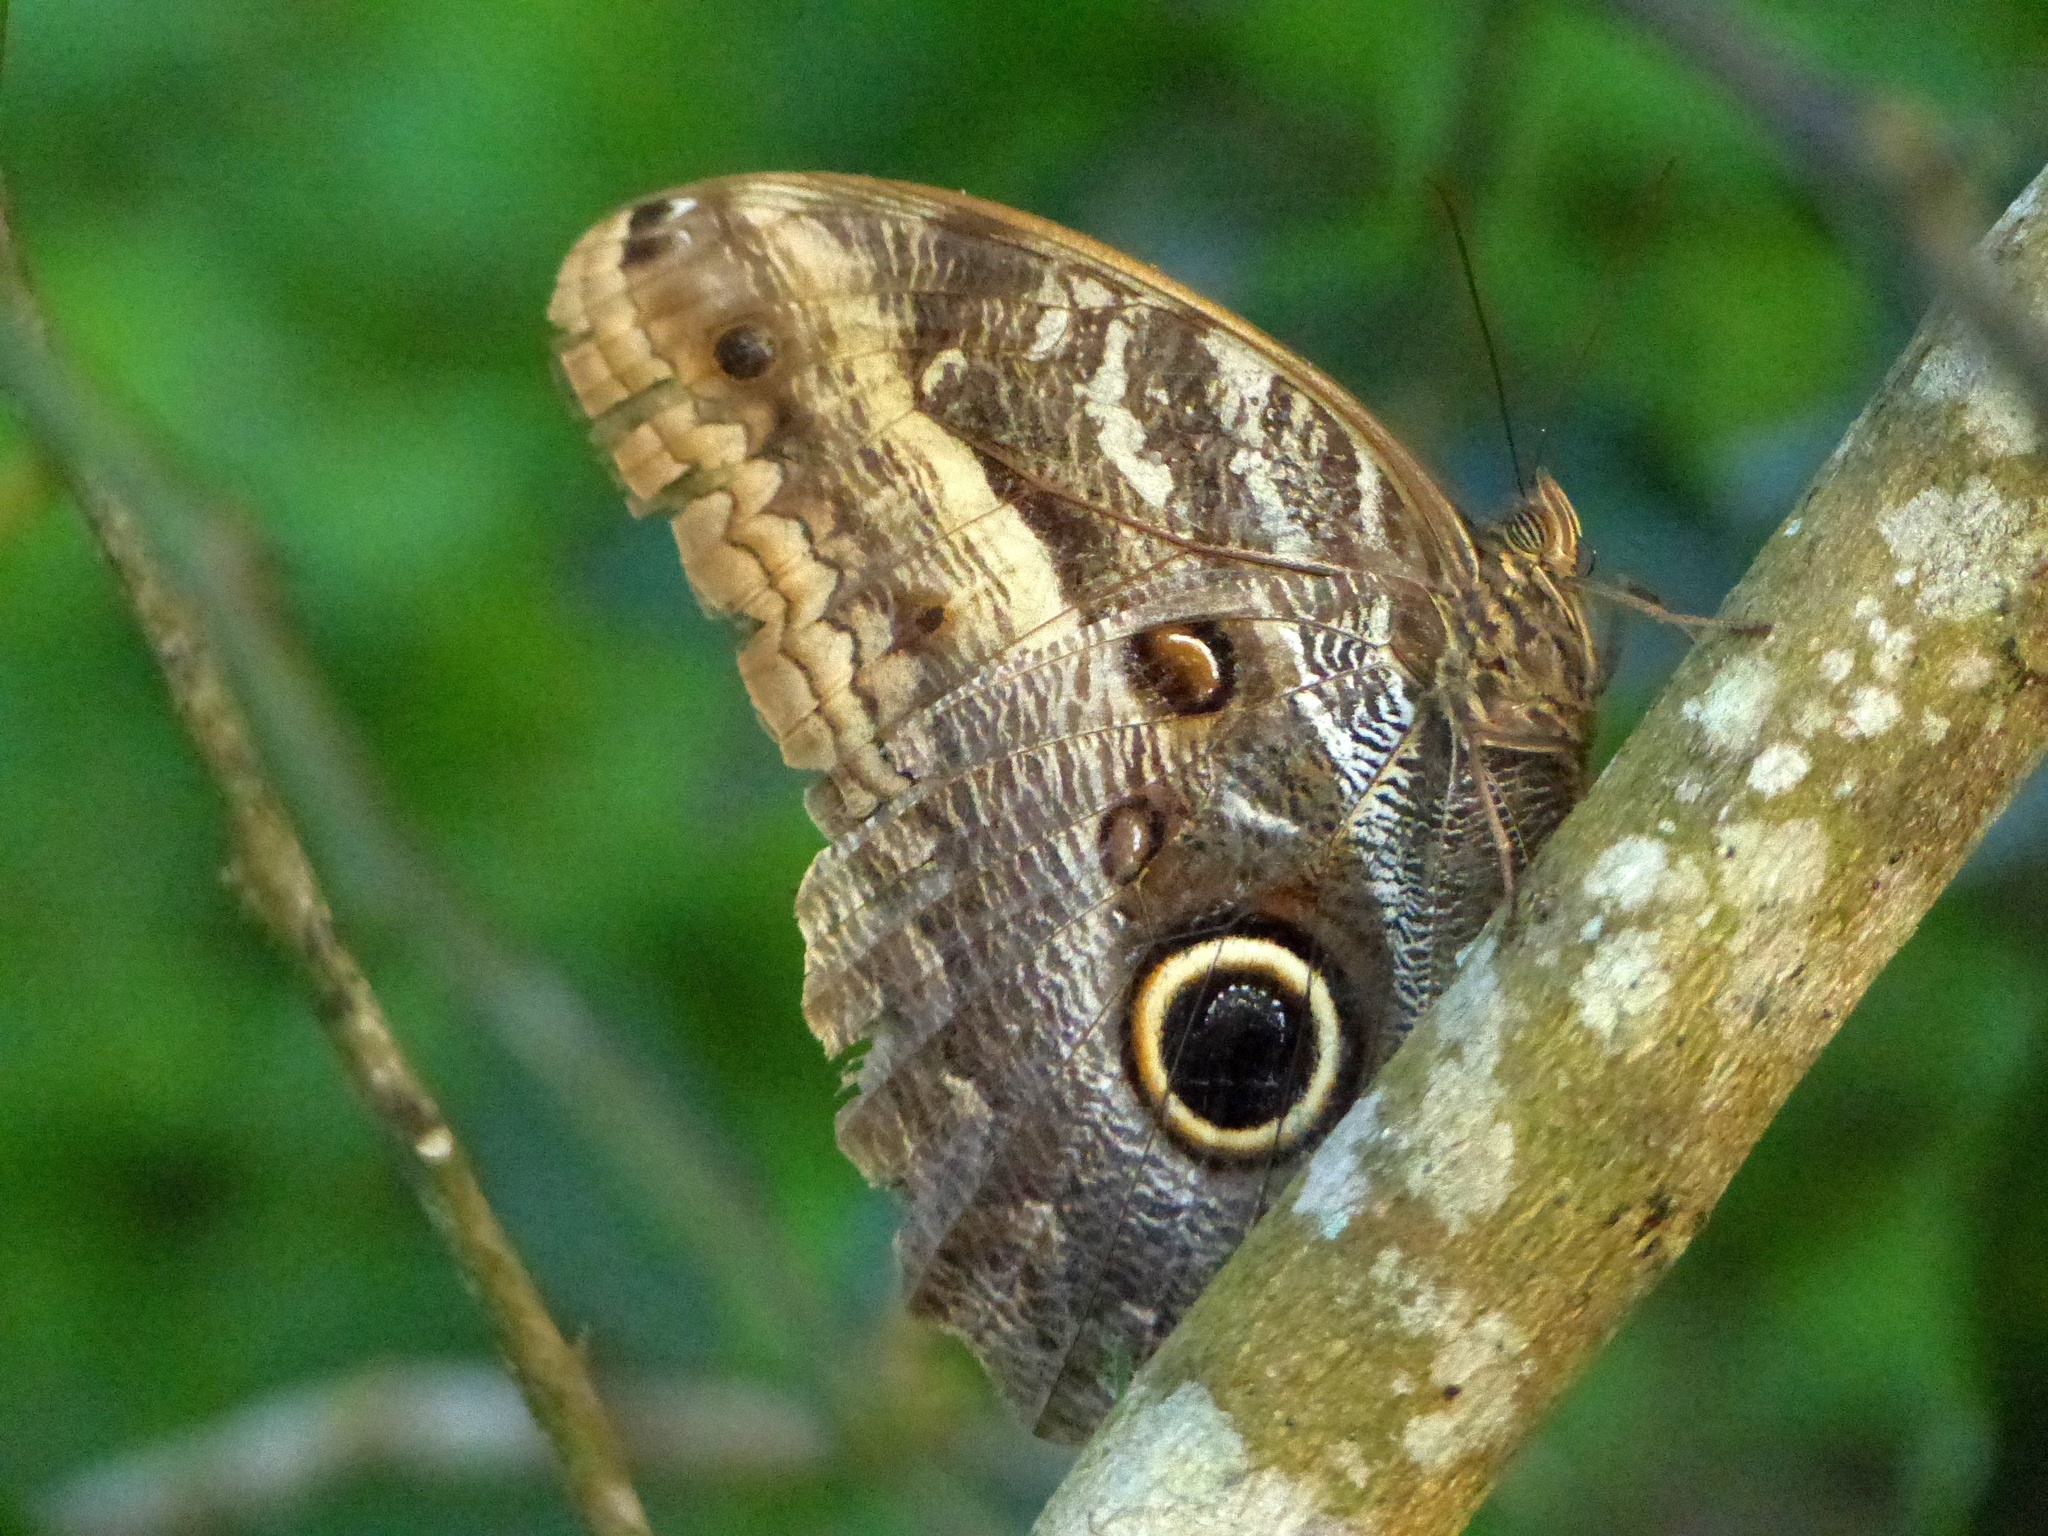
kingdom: Animalia
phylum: Arthropoda
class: Insecta
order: Lepidoptera
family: Nymphalidae
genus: Caligo
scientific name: Caligo teucer
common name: Teucer owl butterfly
